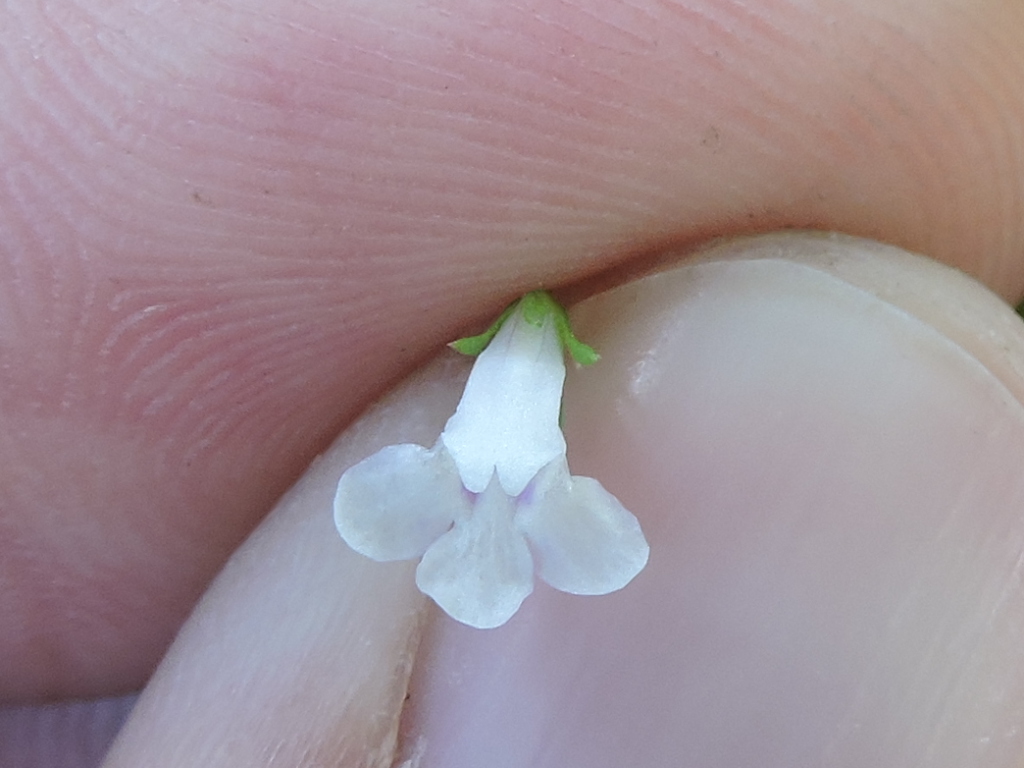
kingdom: Plantae
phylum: Tracheophyta
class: Magnoliopsida
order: Lamiales
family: Linderniaceae
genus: Lindernia
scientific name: Lindernia dubia
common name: Annual false pimpernel
